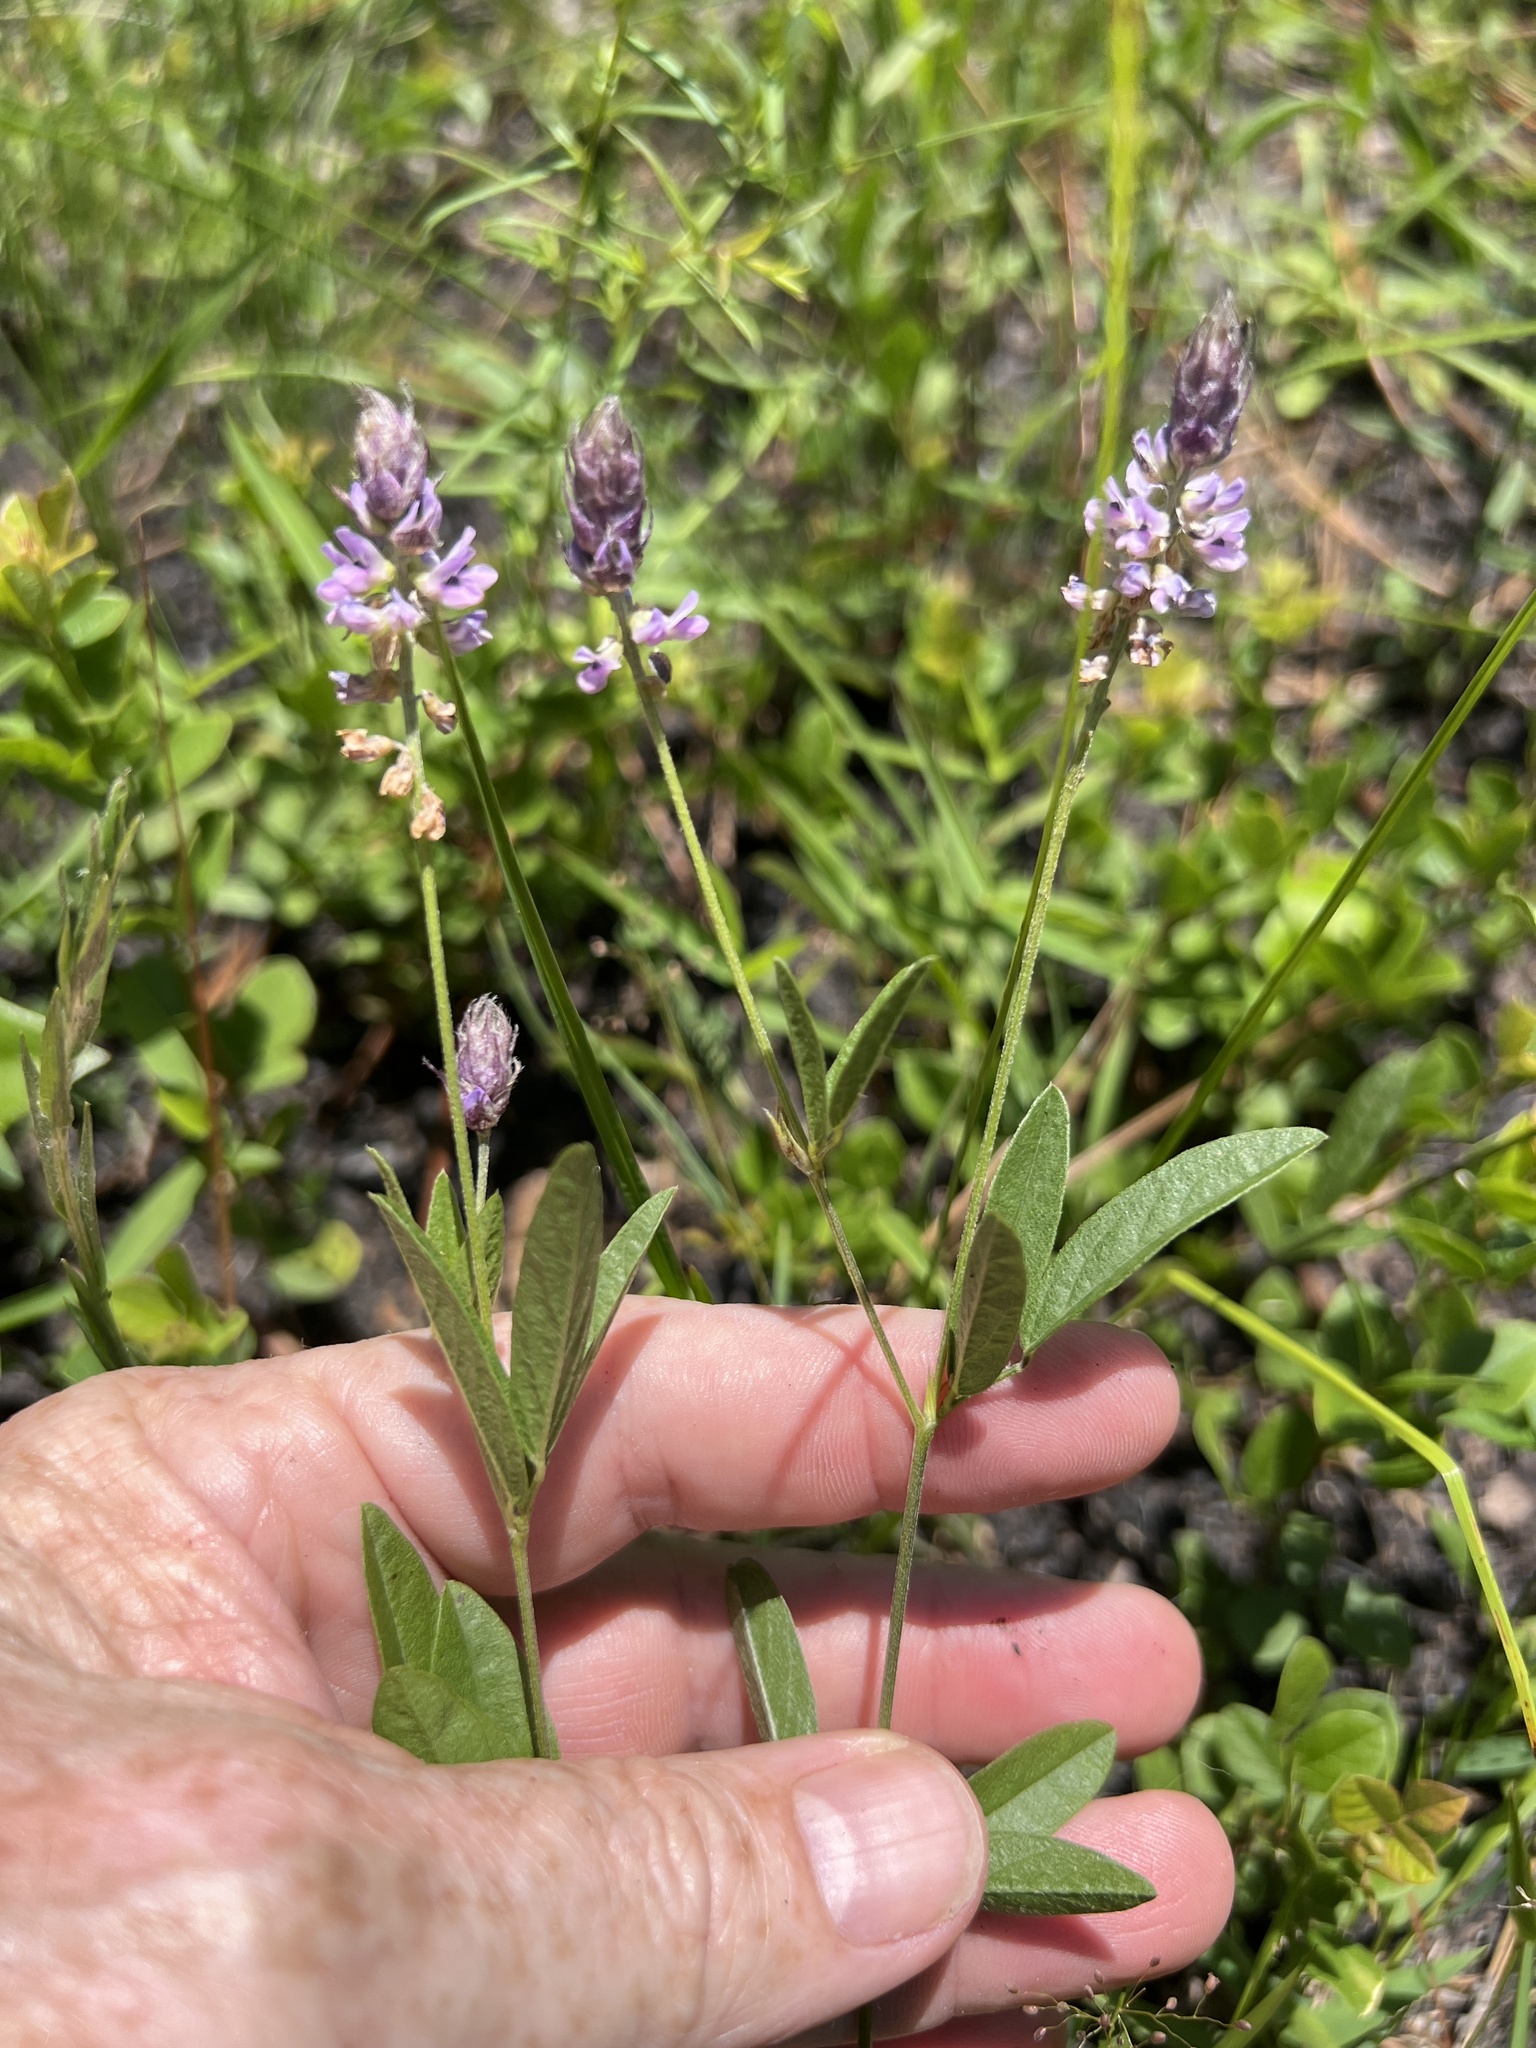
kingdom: Plantae
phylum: Tracheophyta
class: Magnoliopsida
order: Fabales
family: Fabaceae
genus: Orbexilum
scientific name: Orbexilum psoralioides
